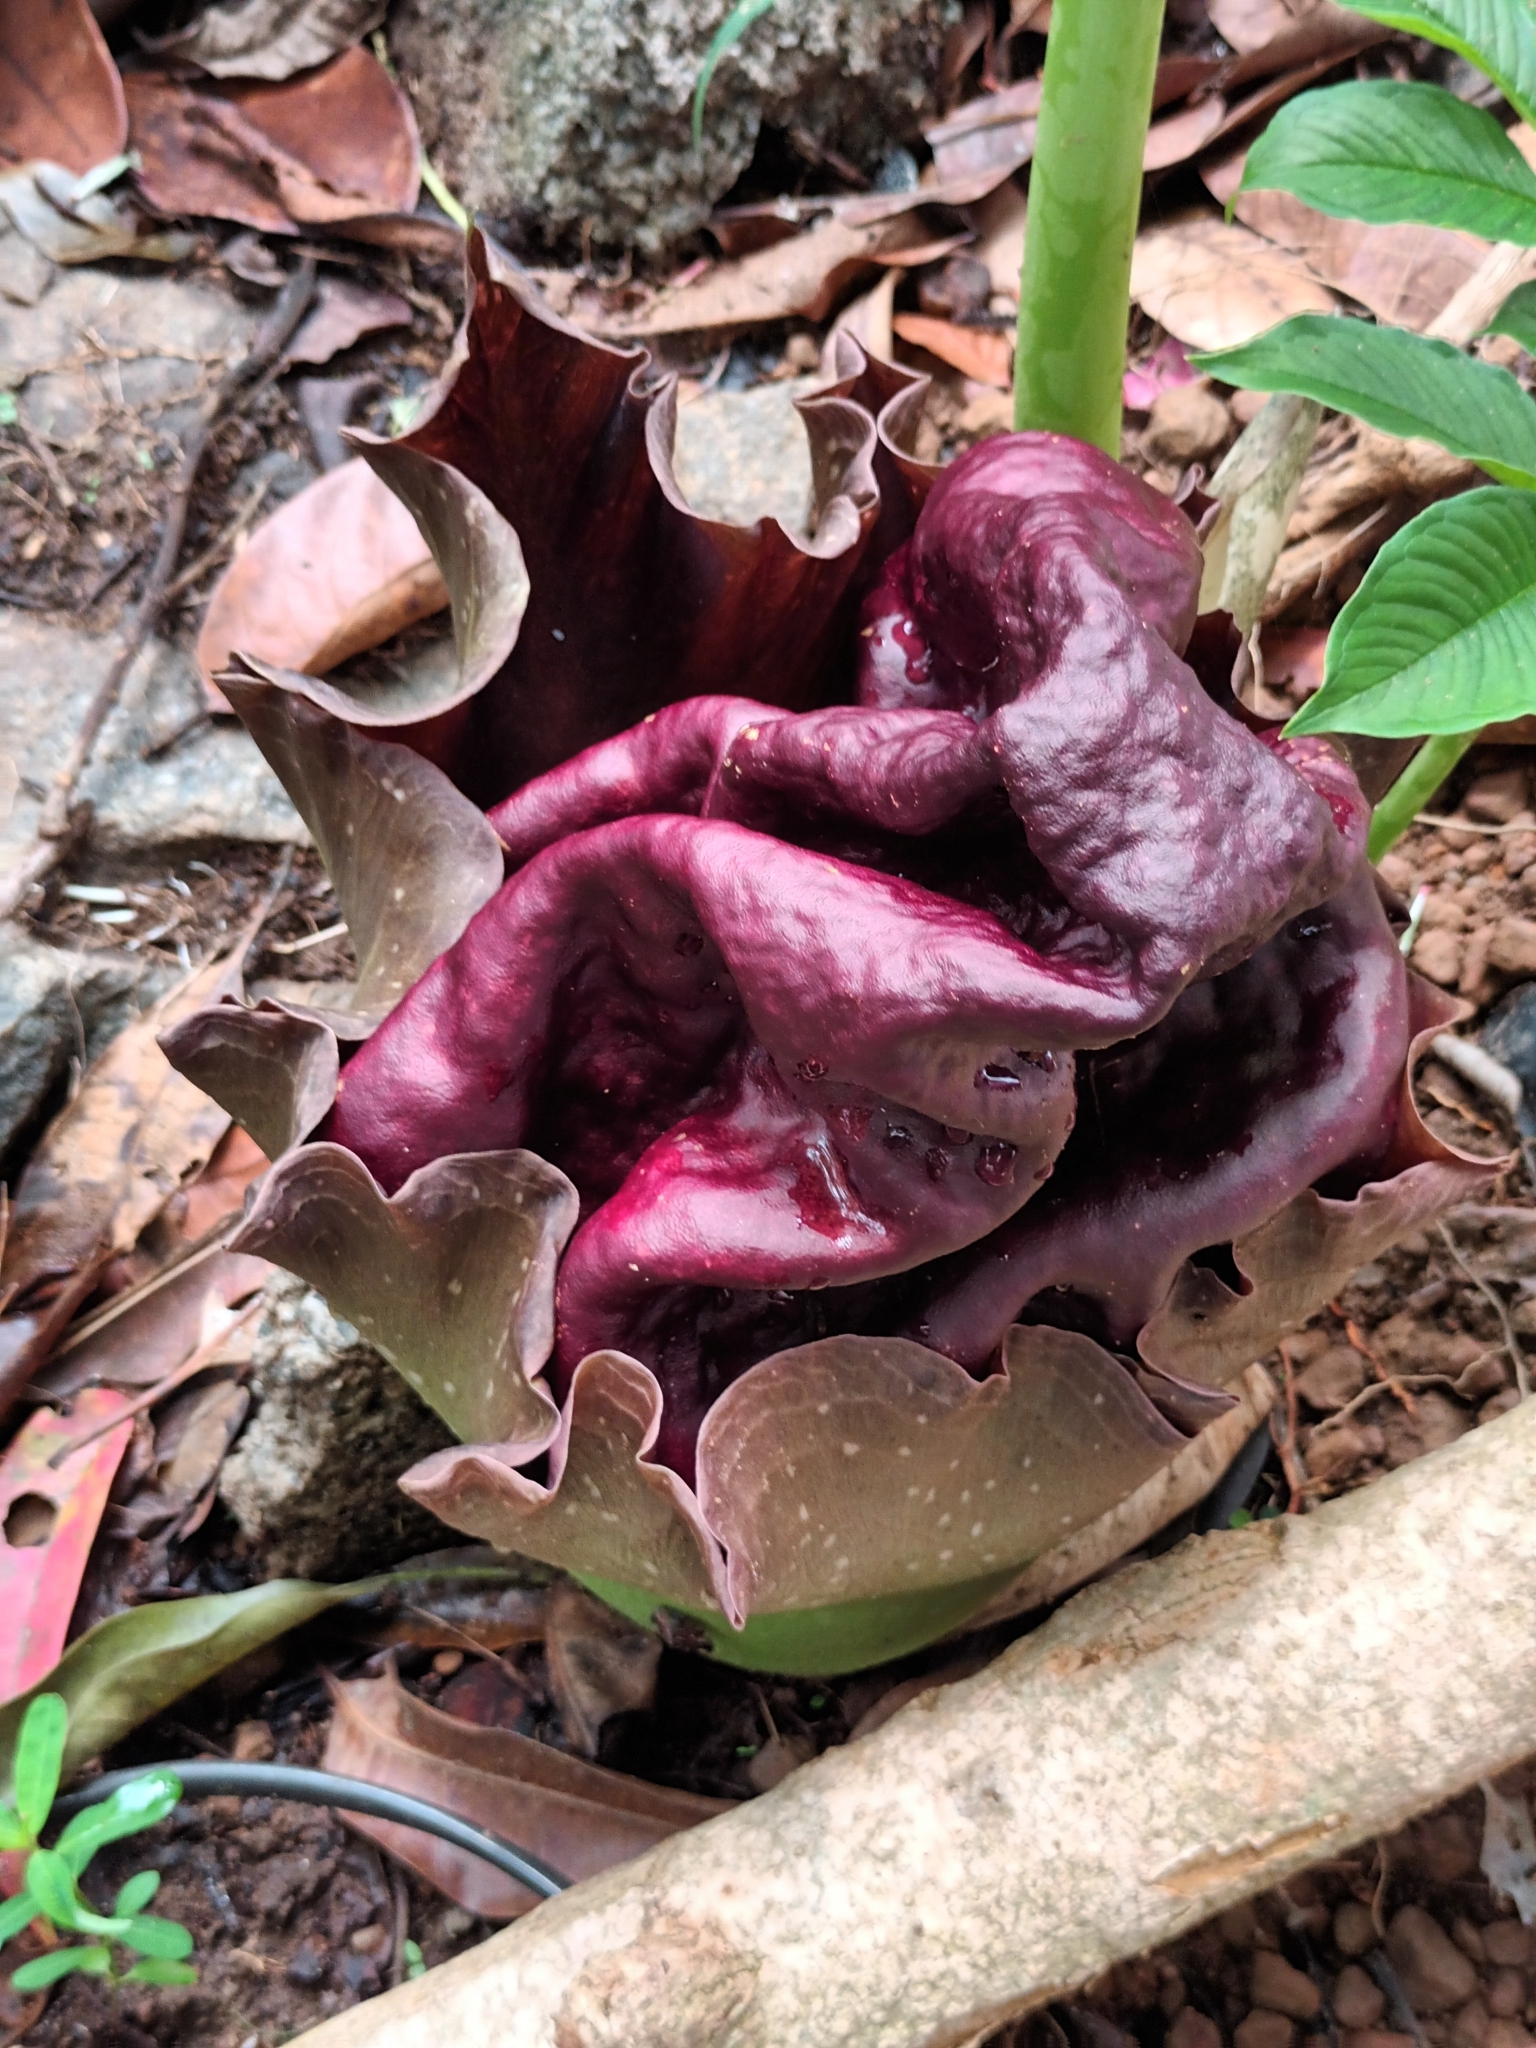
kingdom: Plantae
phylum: Tracheophyta
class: Liliopsida
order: Alismatales
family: Araceae
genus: Amorphophallus
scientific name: Amorphophallus paeoniifolius
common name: Telinga-potato
